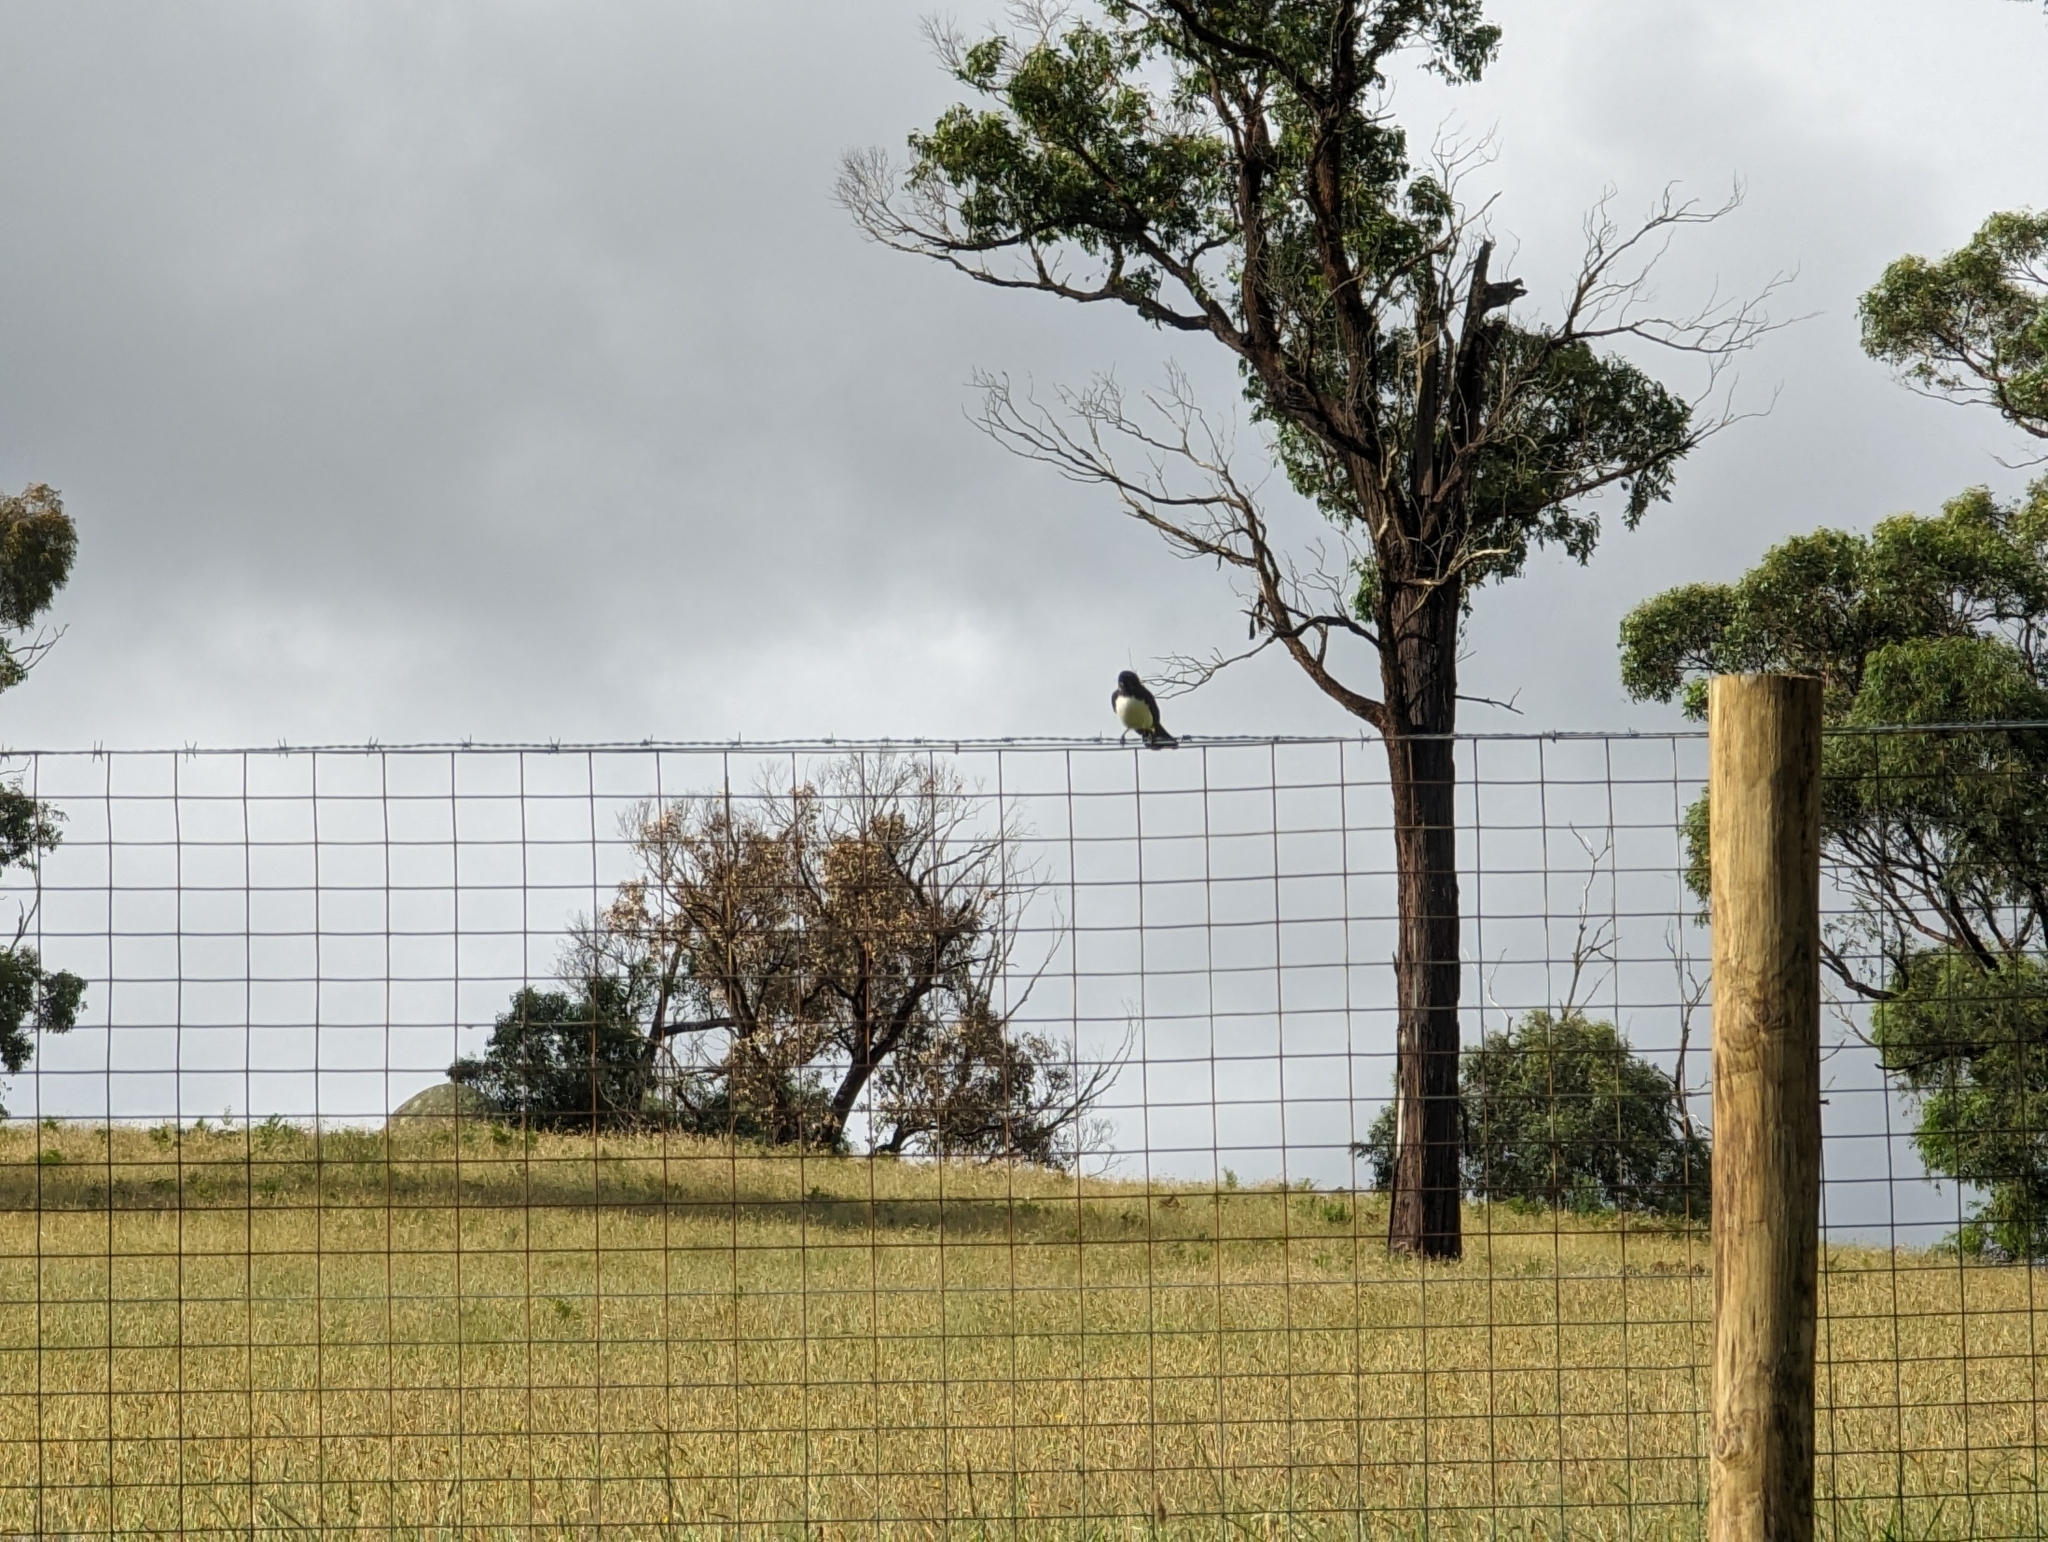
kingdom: Animalia
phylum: Chordata
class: Aves
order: Passeriformes
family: Rhipiduridae
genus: Rhipidura
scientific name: Rhipidura leucophrys
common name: Willie wagtail
